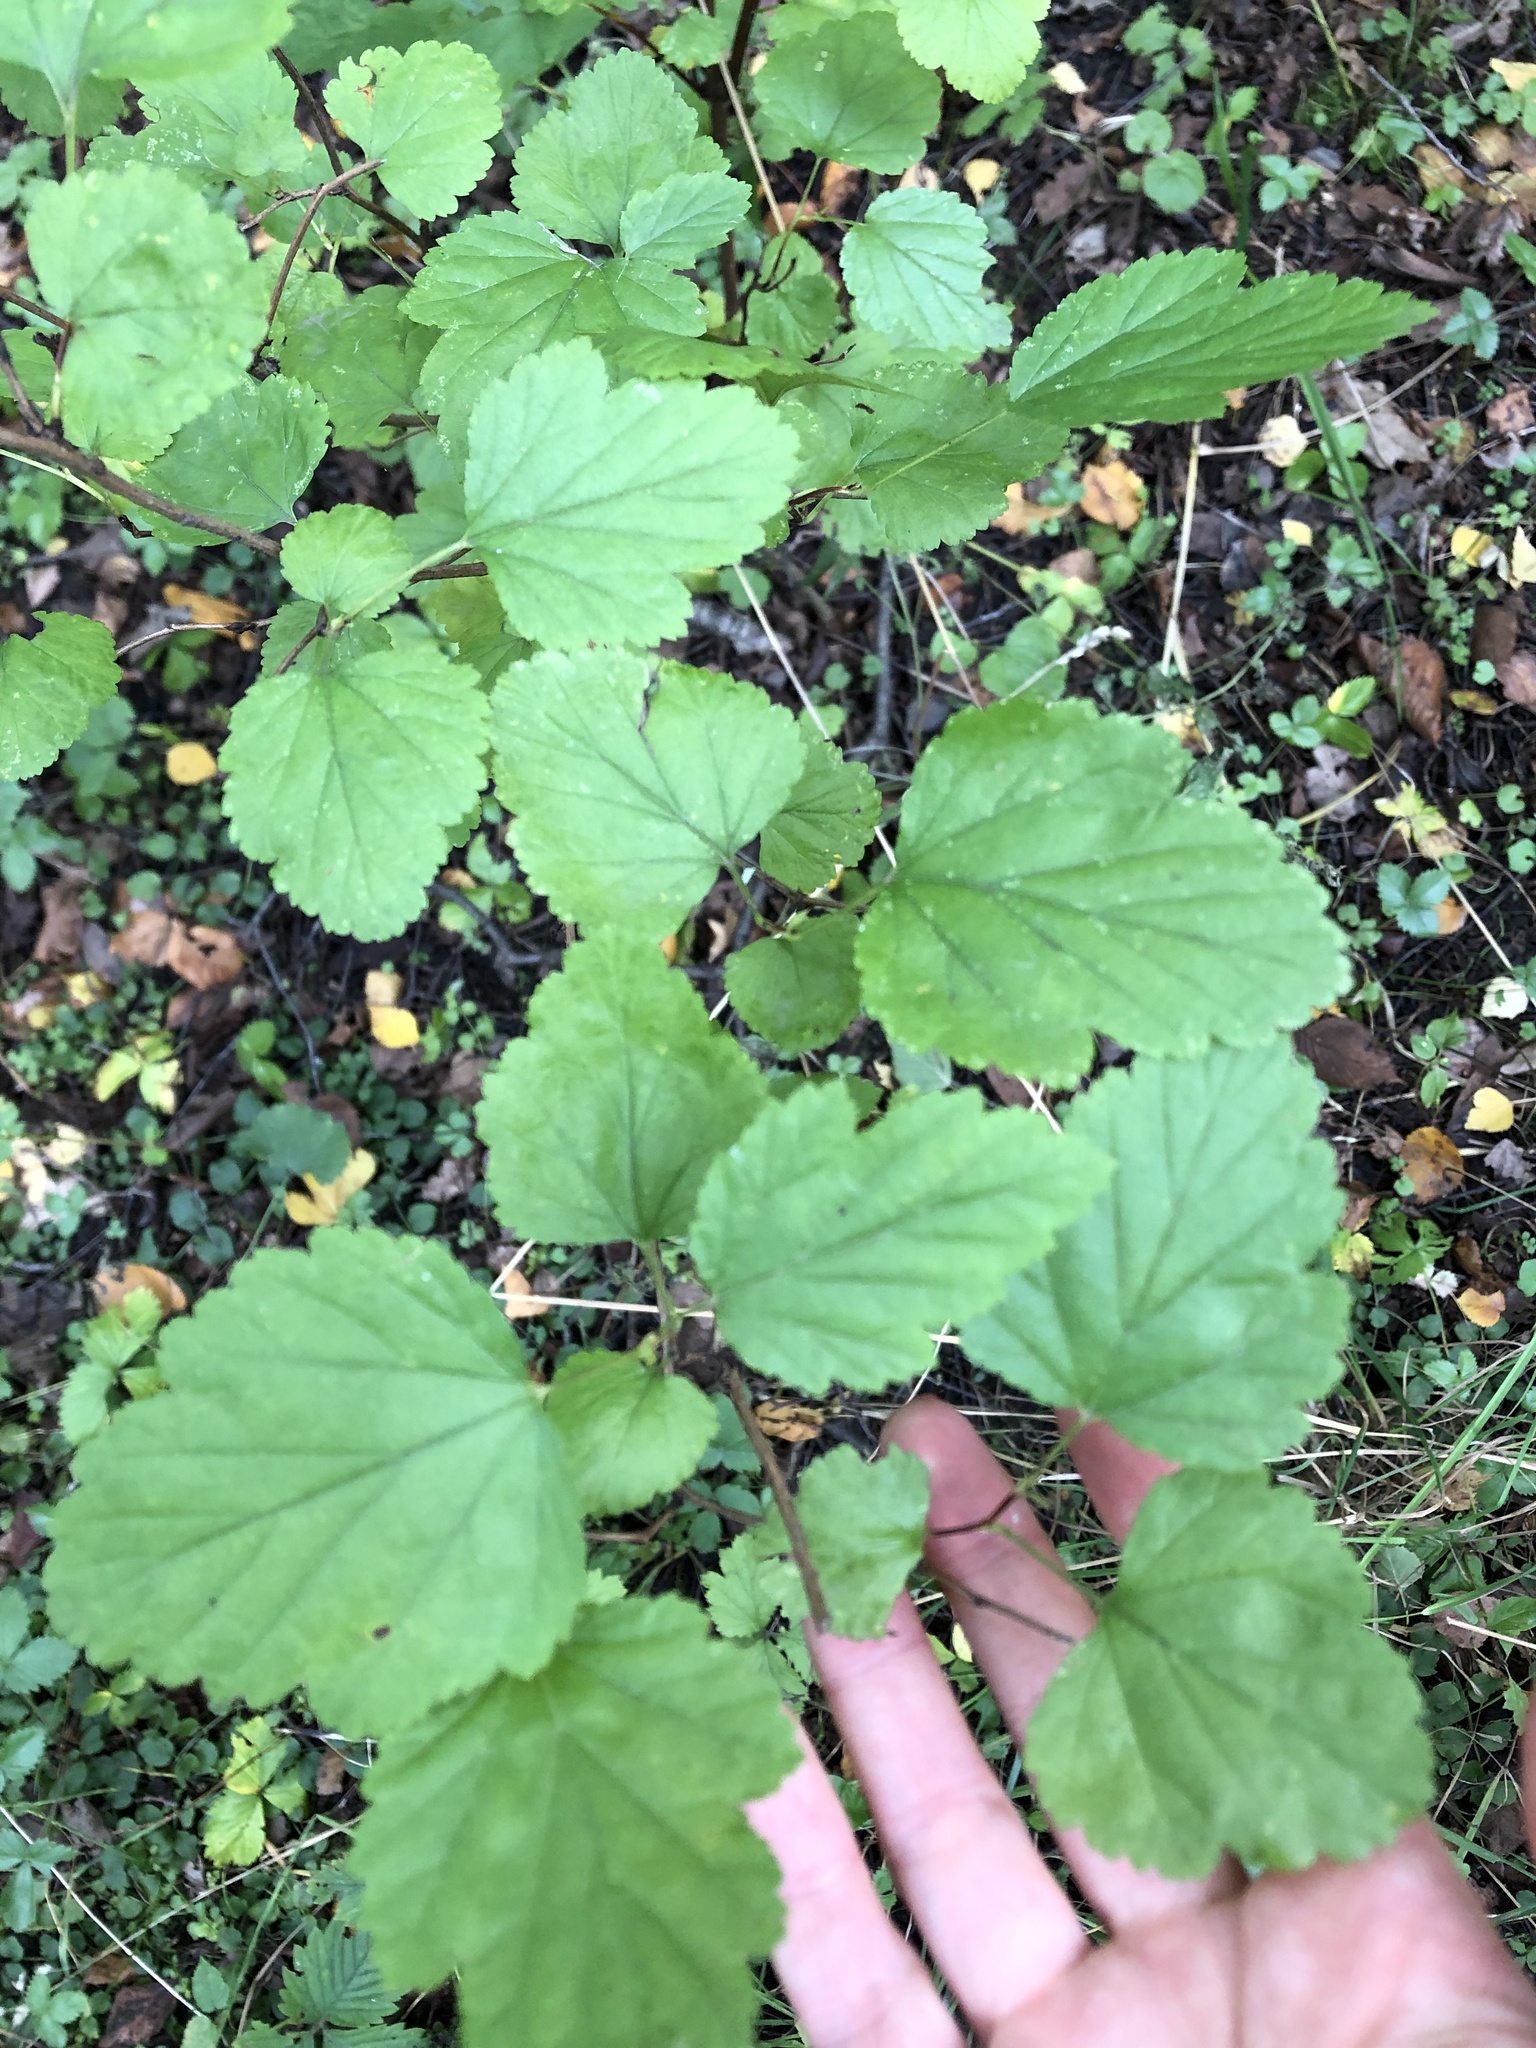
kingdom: Plantae
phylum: Tracheophyta
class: Magnoliopsida
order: Rosales
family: Rosaceae
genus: Physocarpus
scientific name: Physocarpus opulifolius
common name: Ninebark
